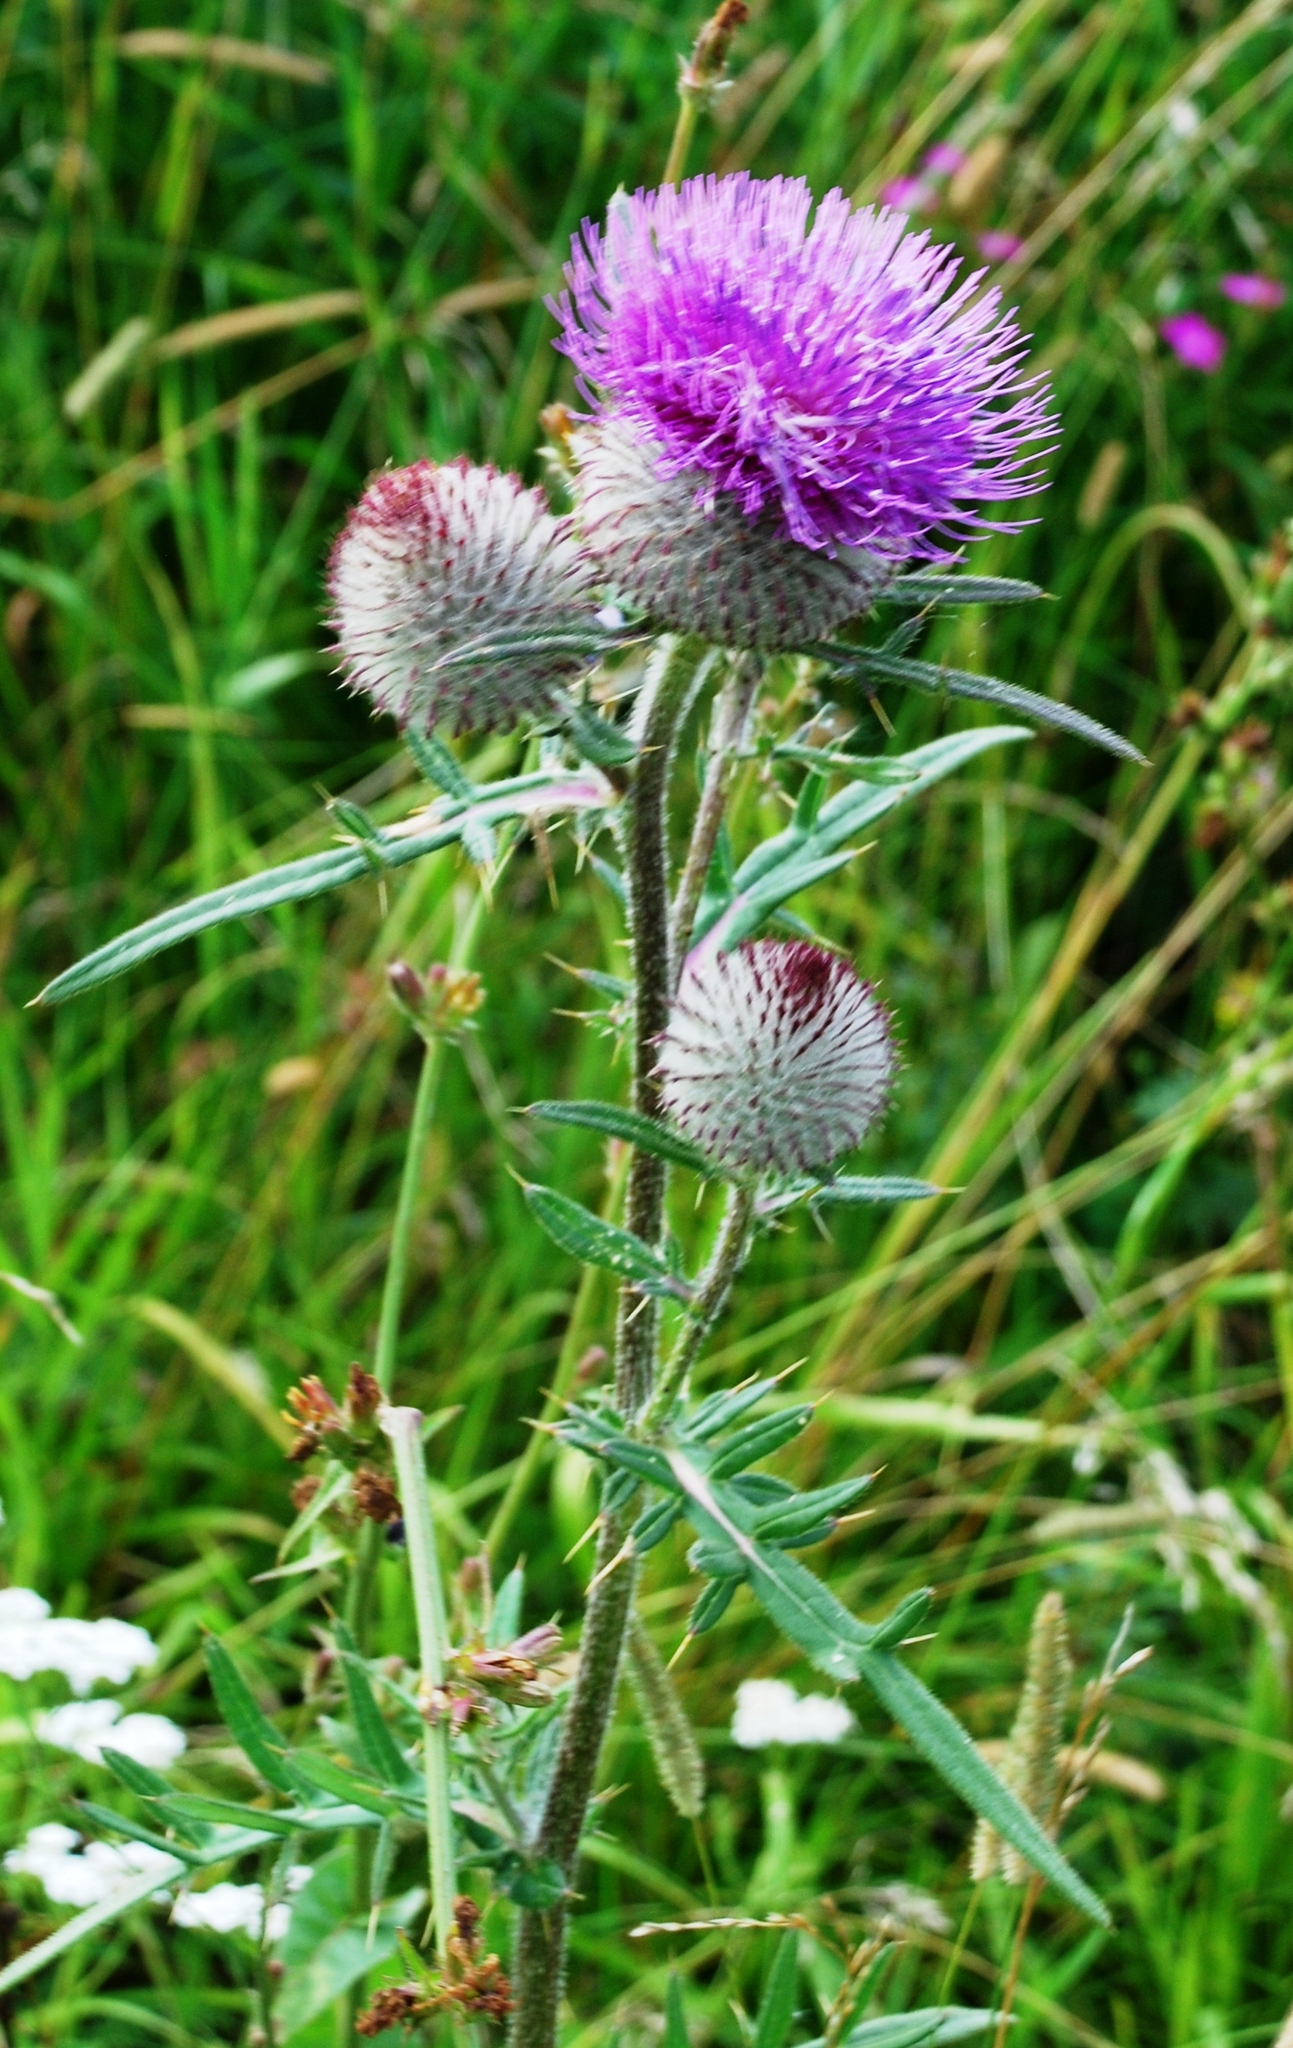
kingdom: Plantae
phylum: Tracheophyta
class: Magnoliopsida
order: Asterales
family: Asteraceae
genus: Lophiolepis
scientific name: Lophiolepis decussata
